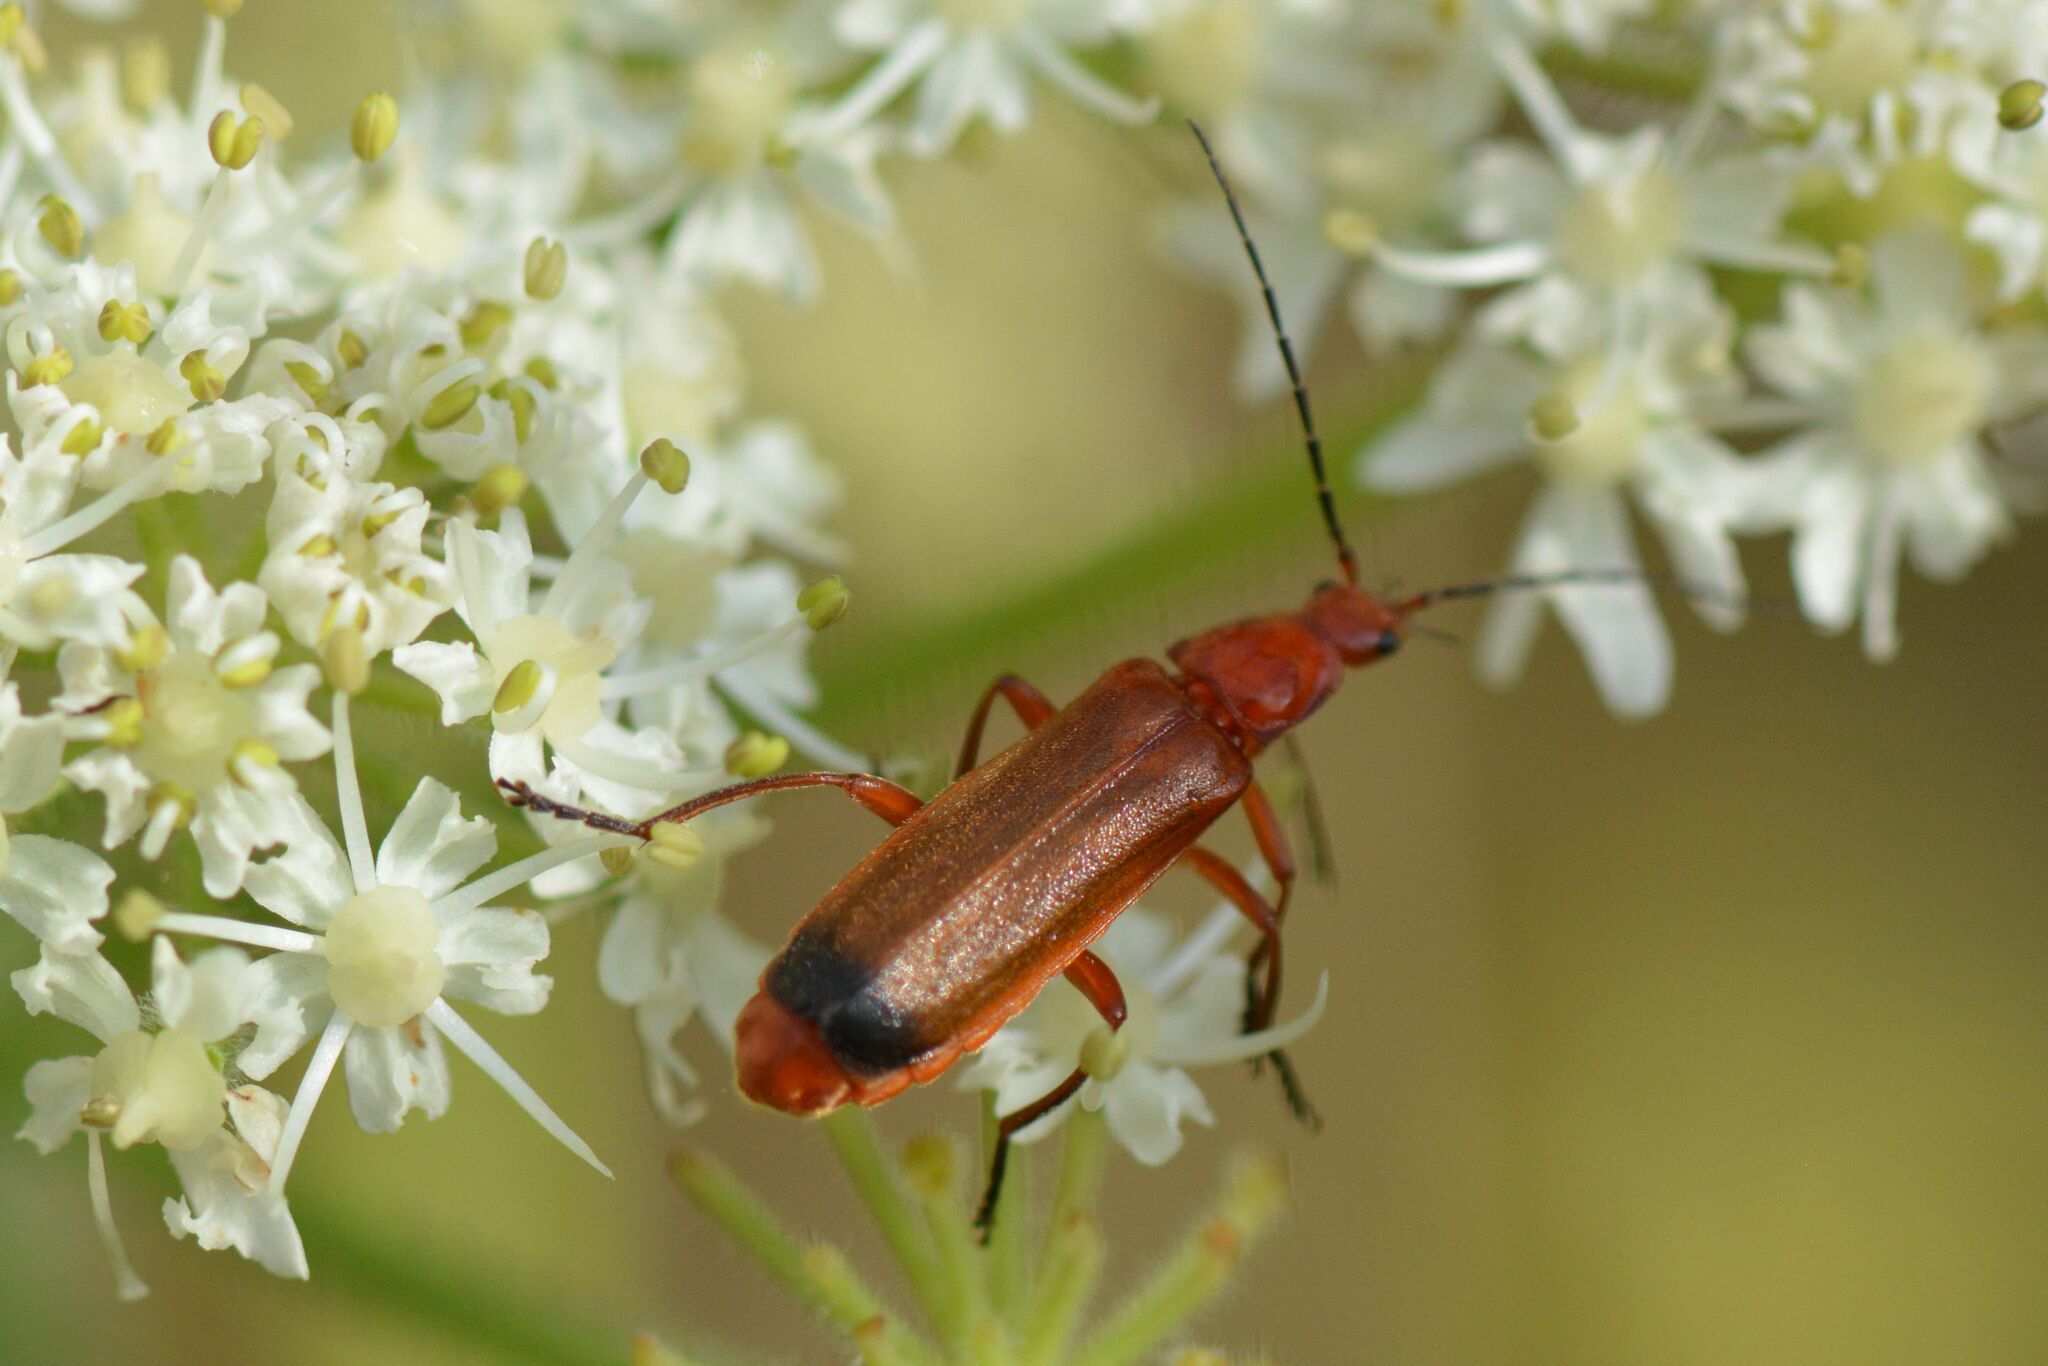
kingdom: Animalia
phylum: Arthropoda
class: Insecta
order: Coleoptera
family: Cantharidae
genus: Rhagonycha
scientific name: Rhagonycha fulva
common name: Common red soldier beetle
